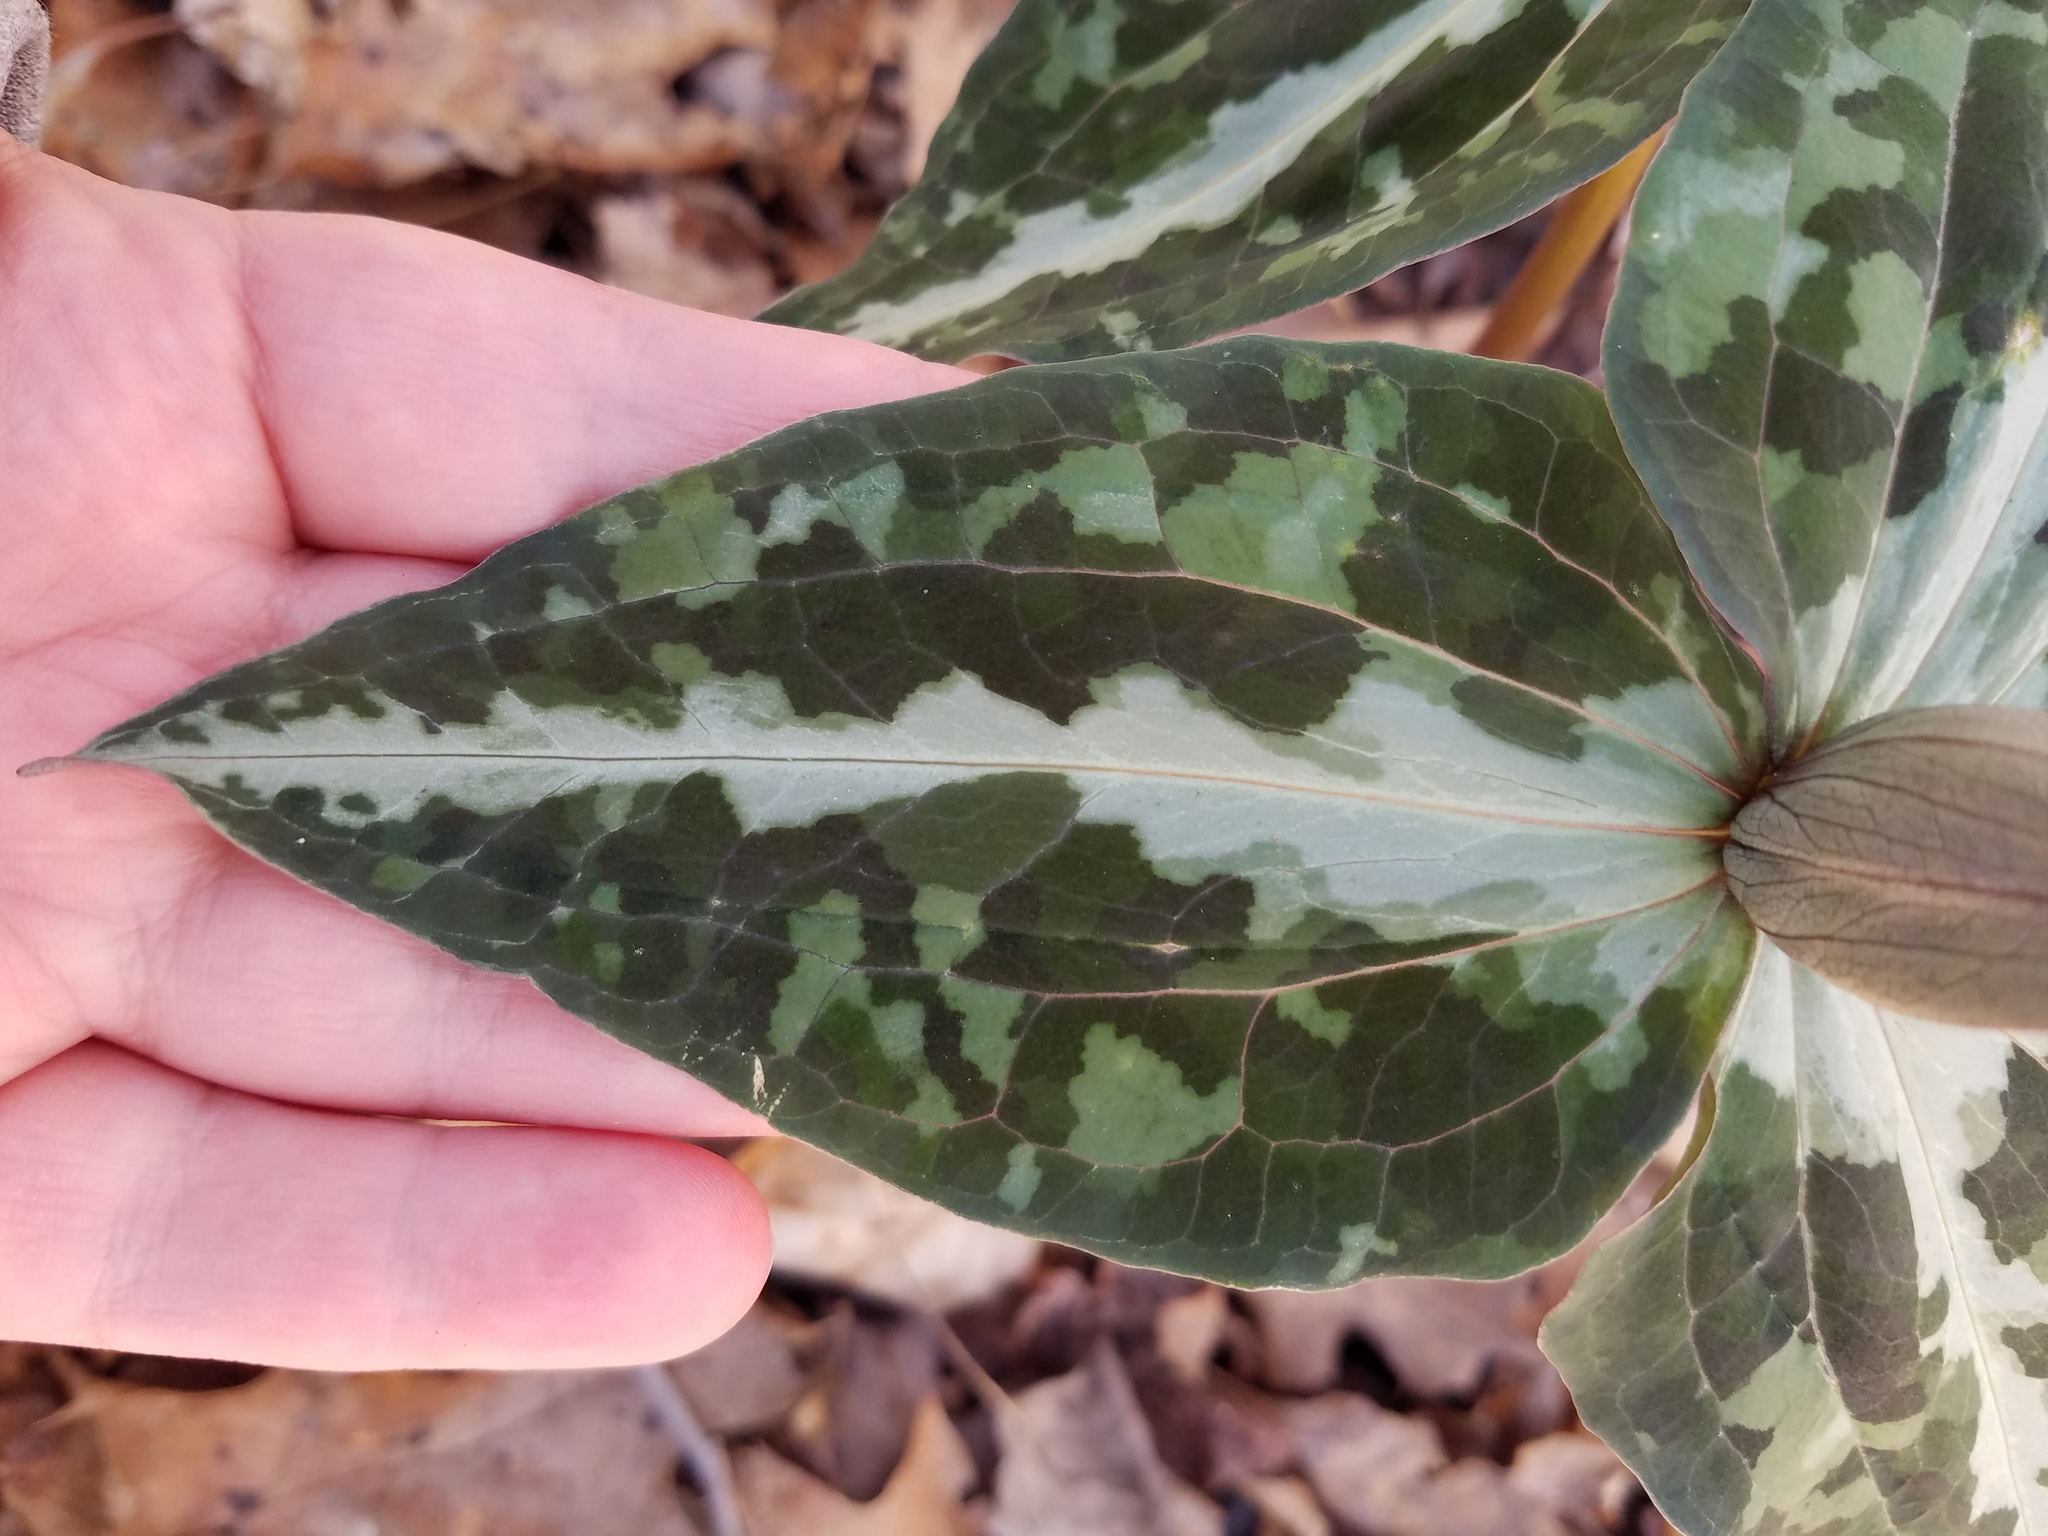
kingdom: Plantae
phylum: Tracheophyta
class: Liliopsida
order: Liliales
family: Melanthiaceae
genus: Trillium
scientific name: Trillium decipiens
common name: Chattahoochee river trillium
